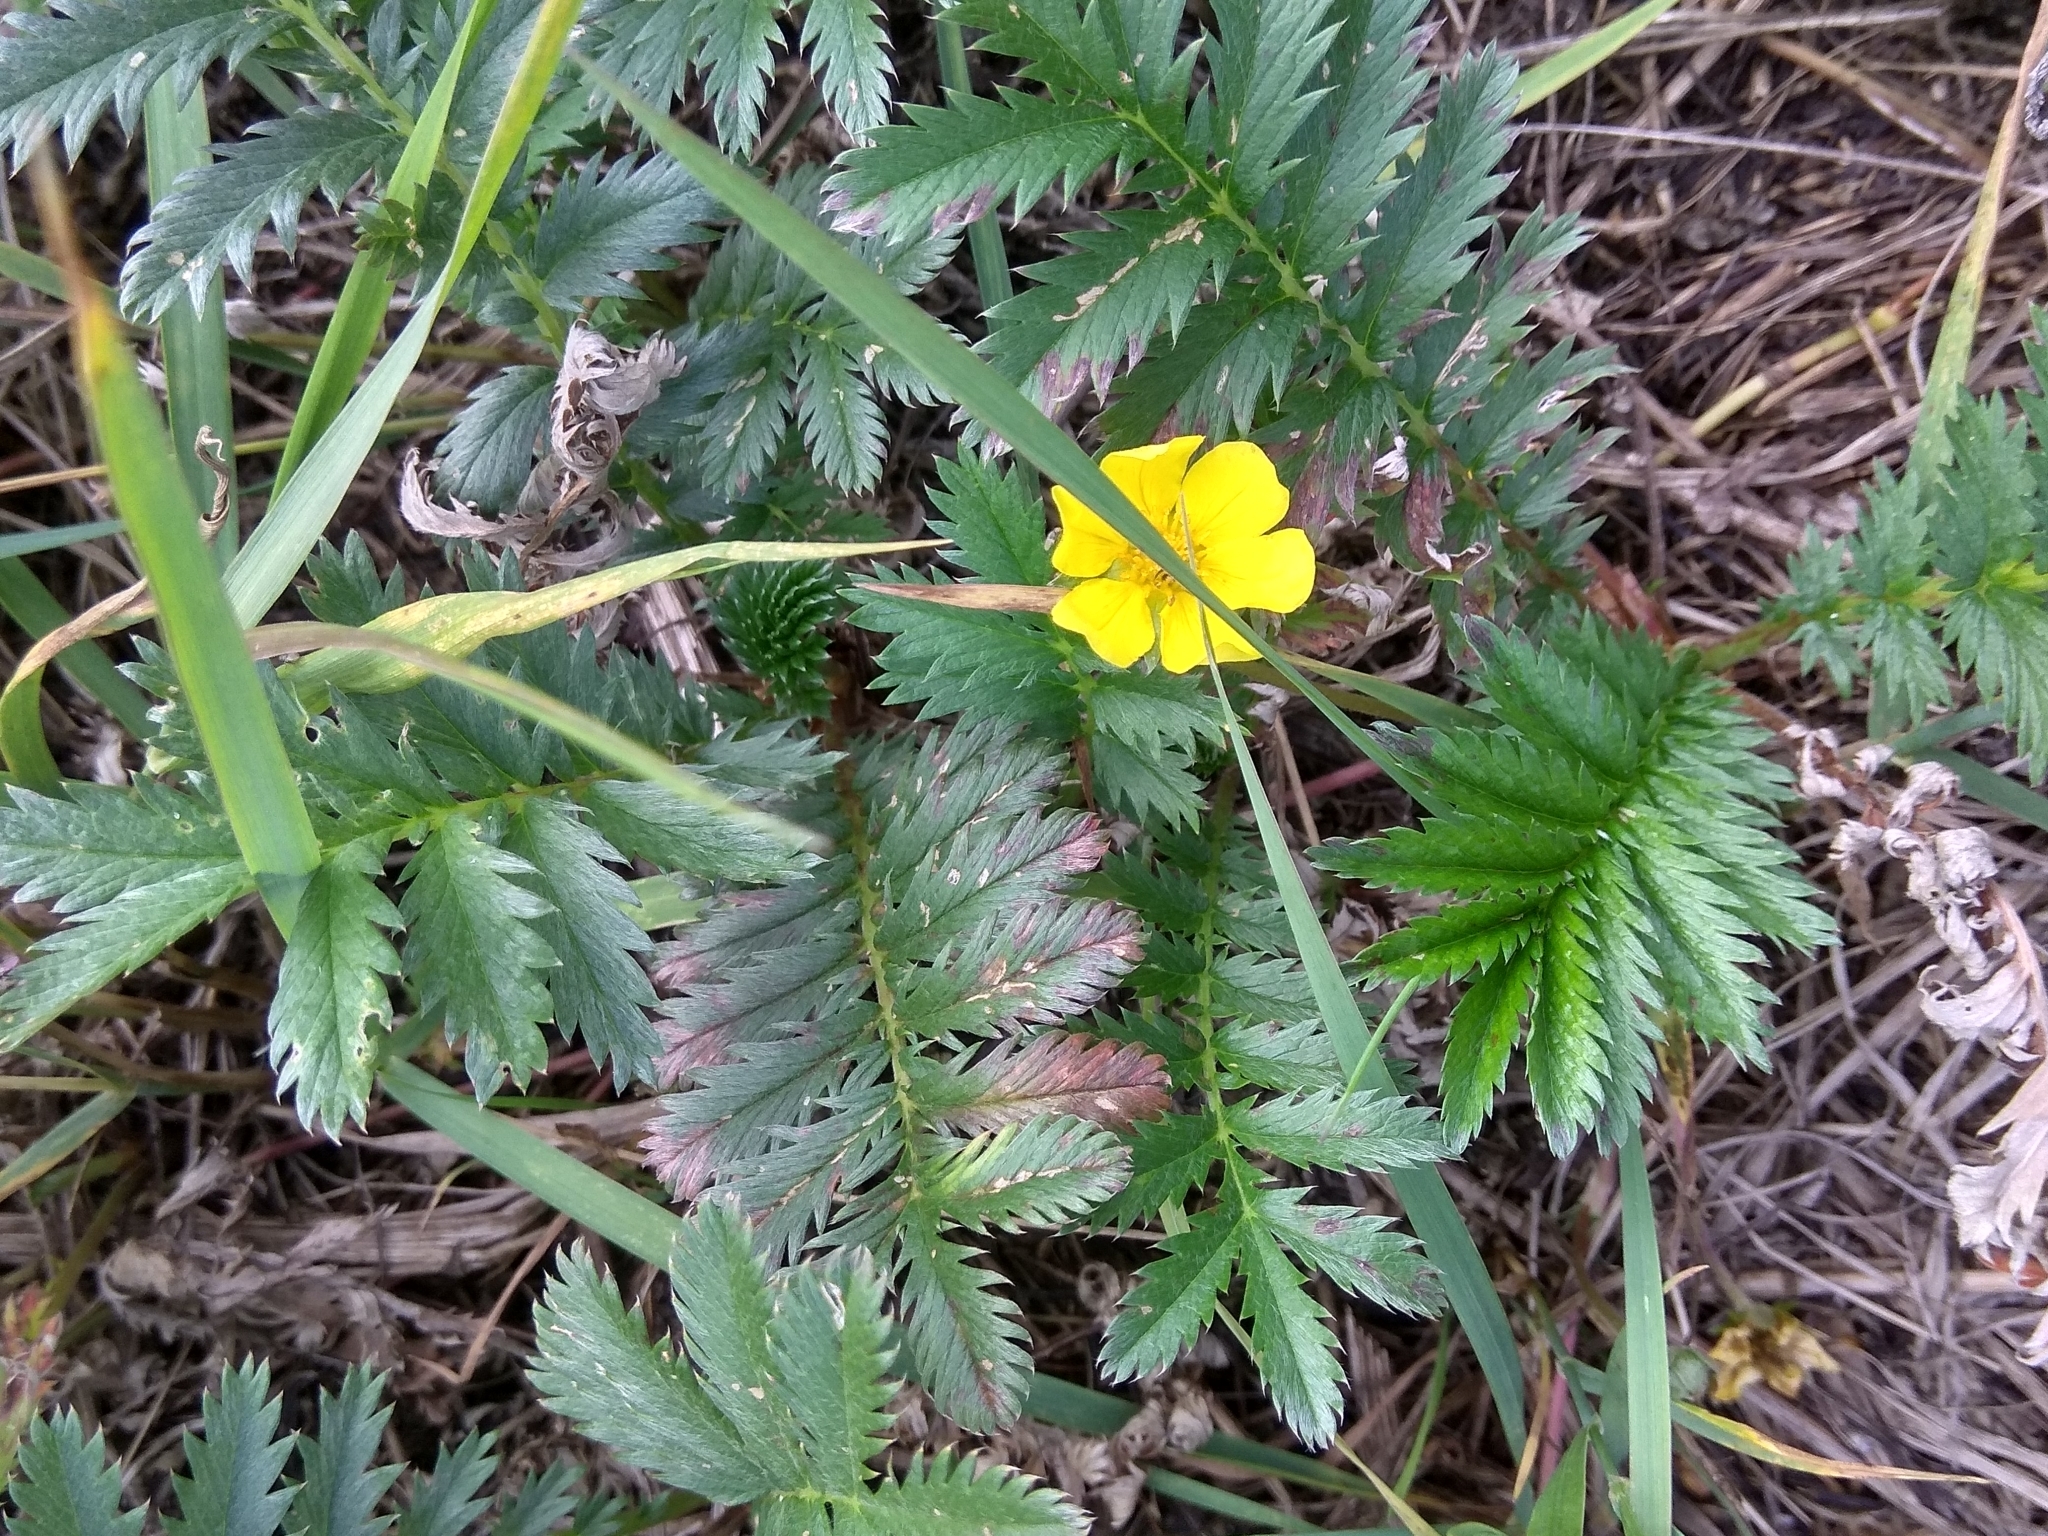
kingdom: Plantae
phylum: Tracheophyta
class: Magnoliopsida
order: Rosales
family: Rosaceae
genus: Argentina
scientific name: Argentina anserina
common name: Common silverweed
